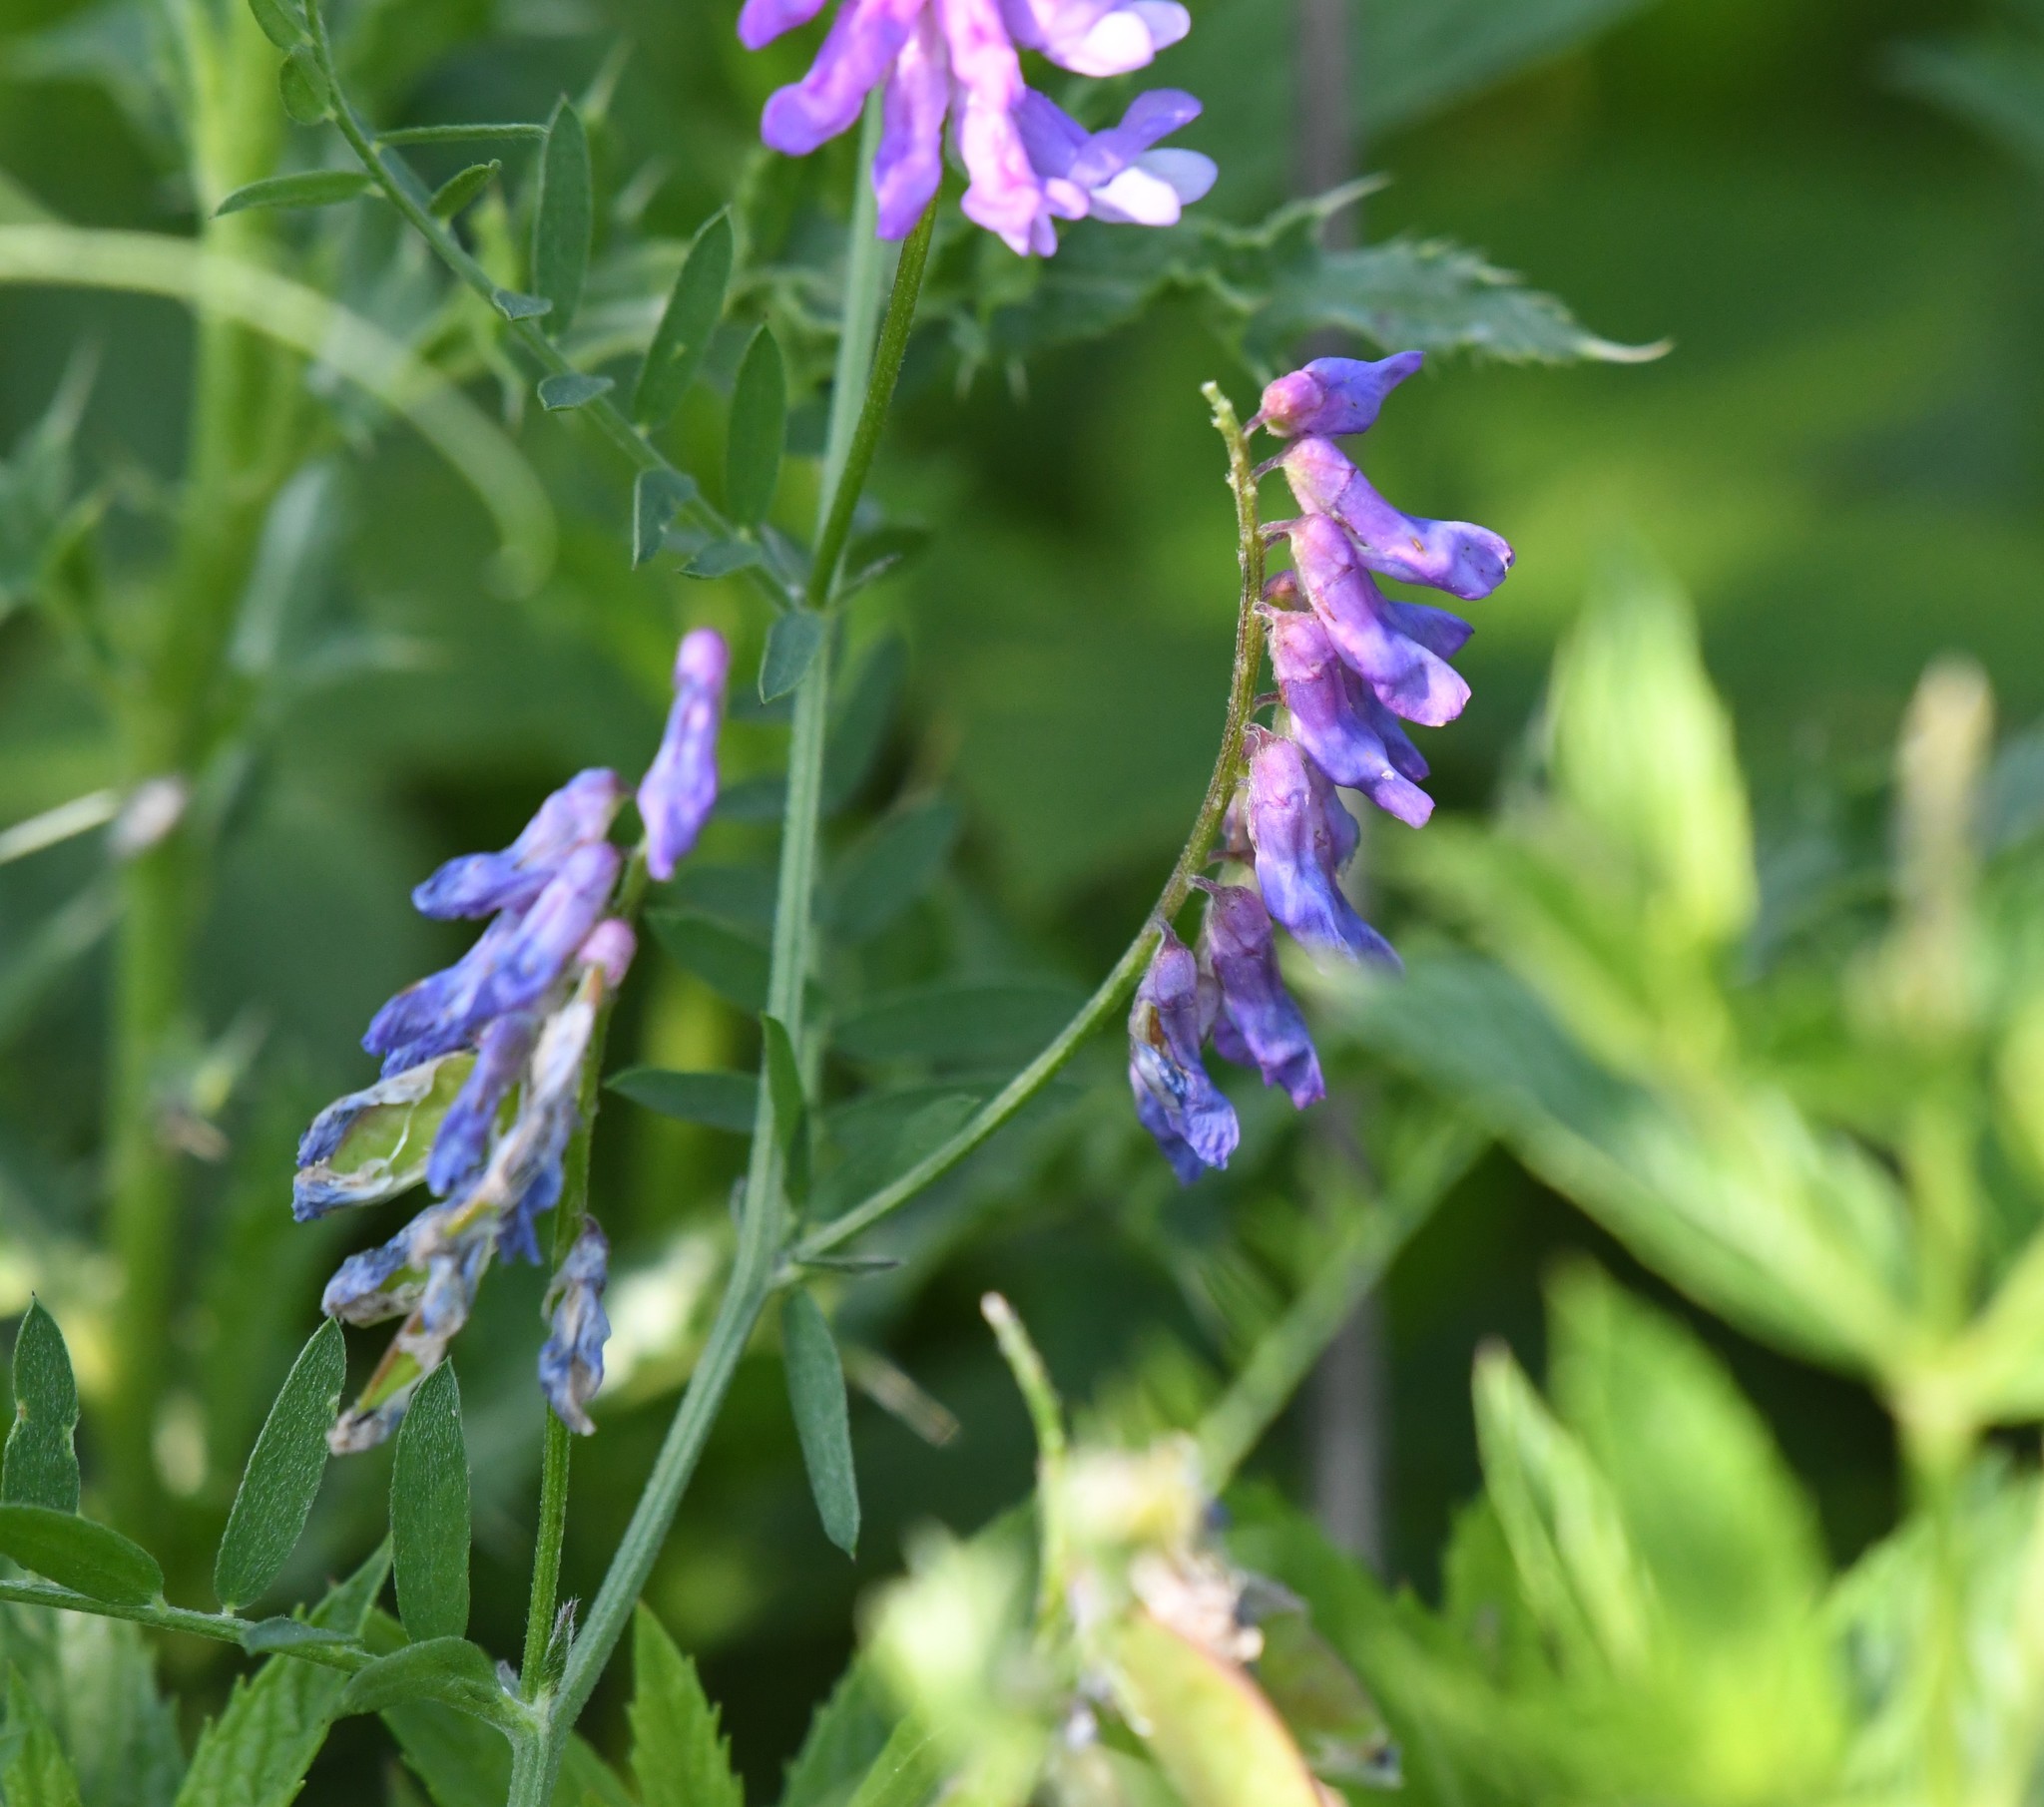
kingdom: Plantae
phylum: Tracheophyta
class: Magnoliopsida
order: Fabales
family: Fabaceae
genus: Vicia
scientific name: Vicia cracca
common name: Bird vetch
